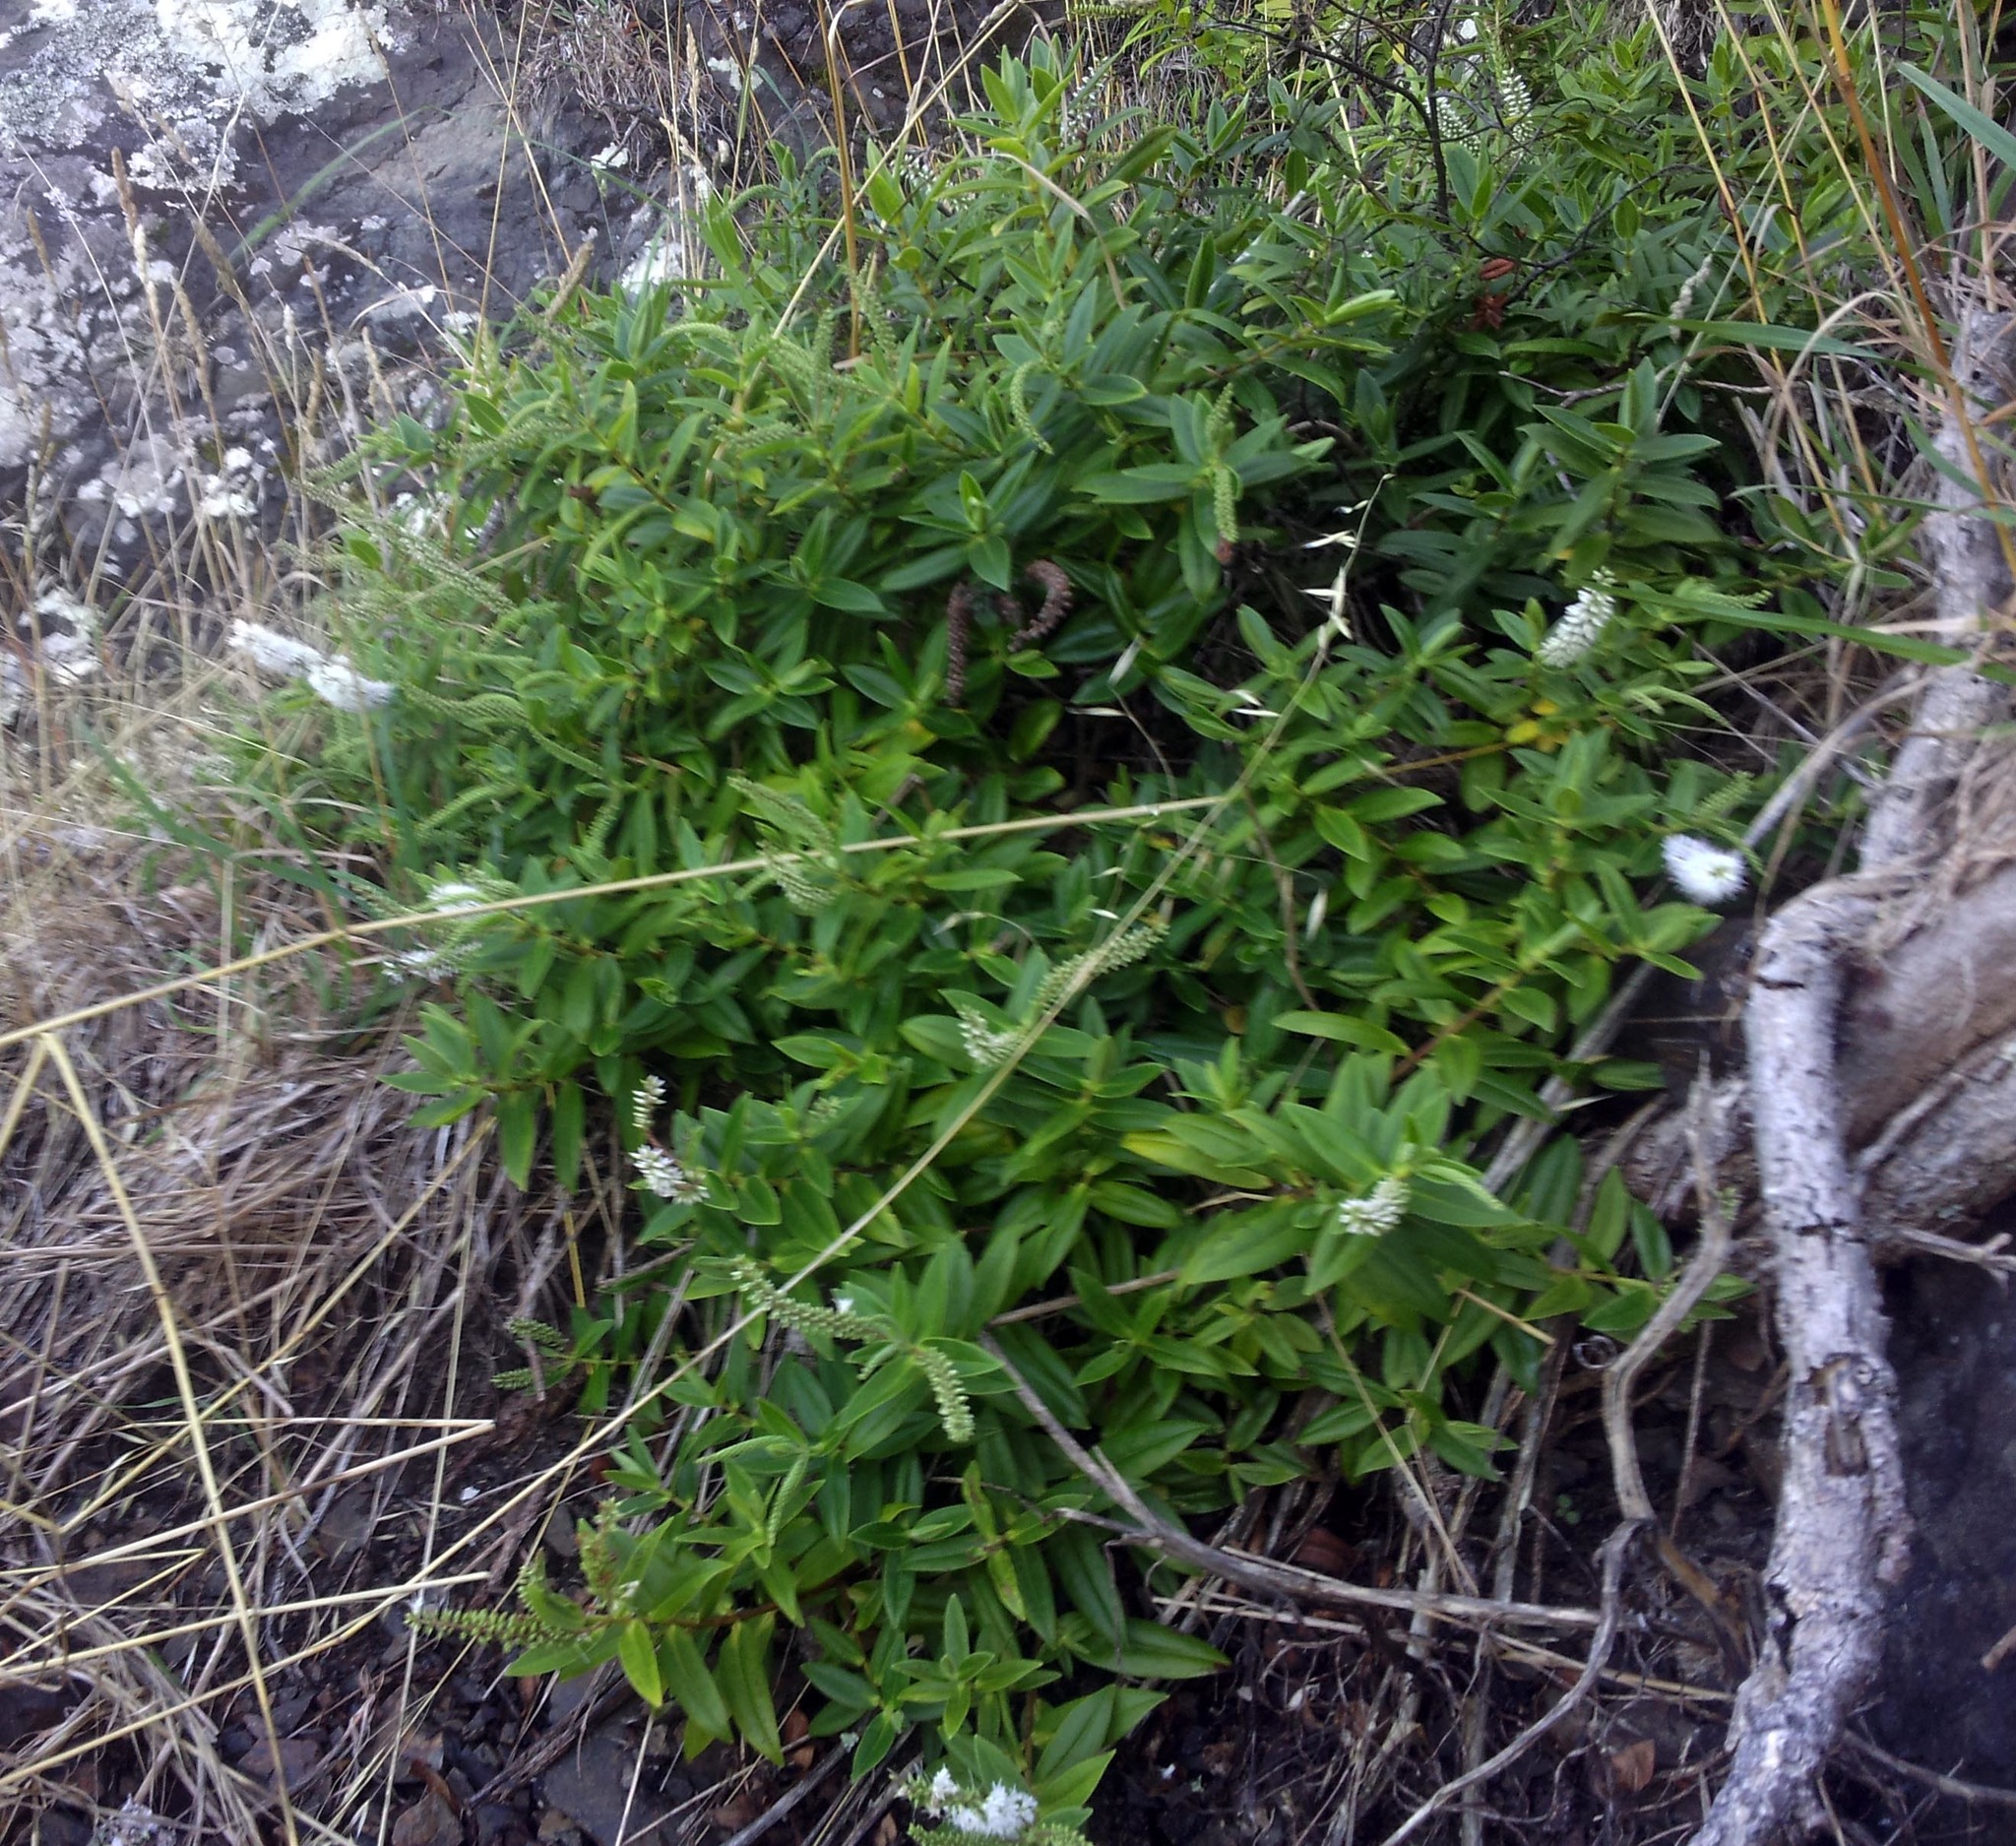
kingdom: Plantae
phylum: Tracheophyta
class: Magnoliopsida
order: Lamiales
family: Plantaginaceae
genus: Veronica
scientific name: Veronica pubescens
